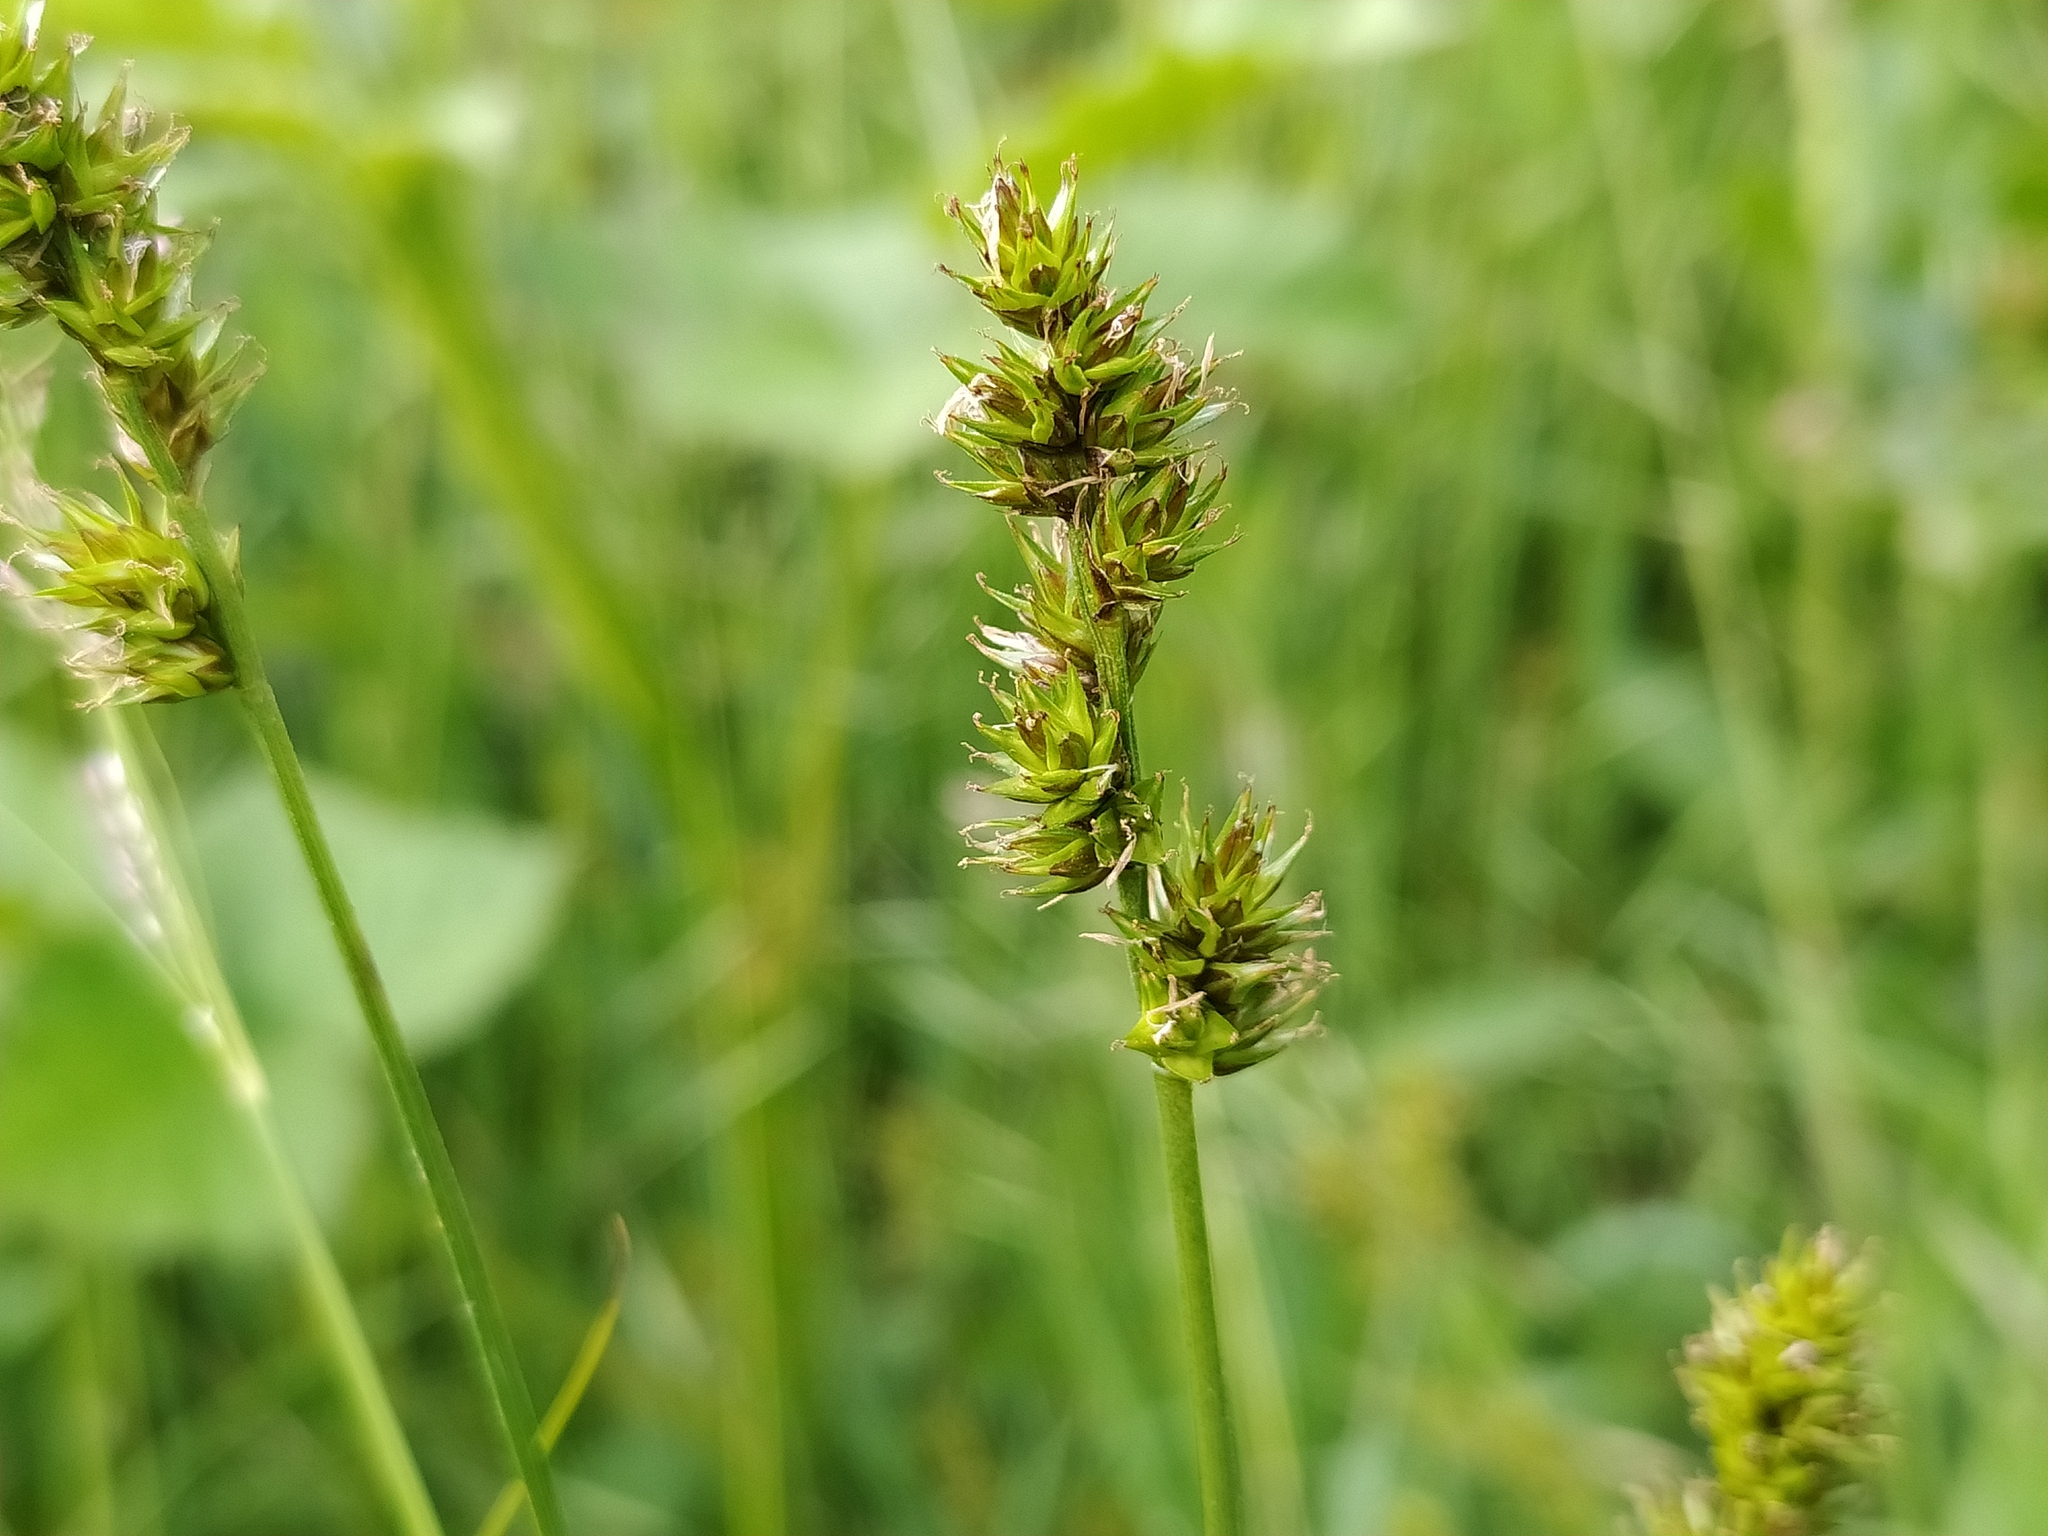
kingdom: Plantae
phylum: Tracheophyta
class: Liliopsida
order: Poales
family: Cyperaceae
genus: Carex
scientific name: Carex muricata
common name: Rough sedge
